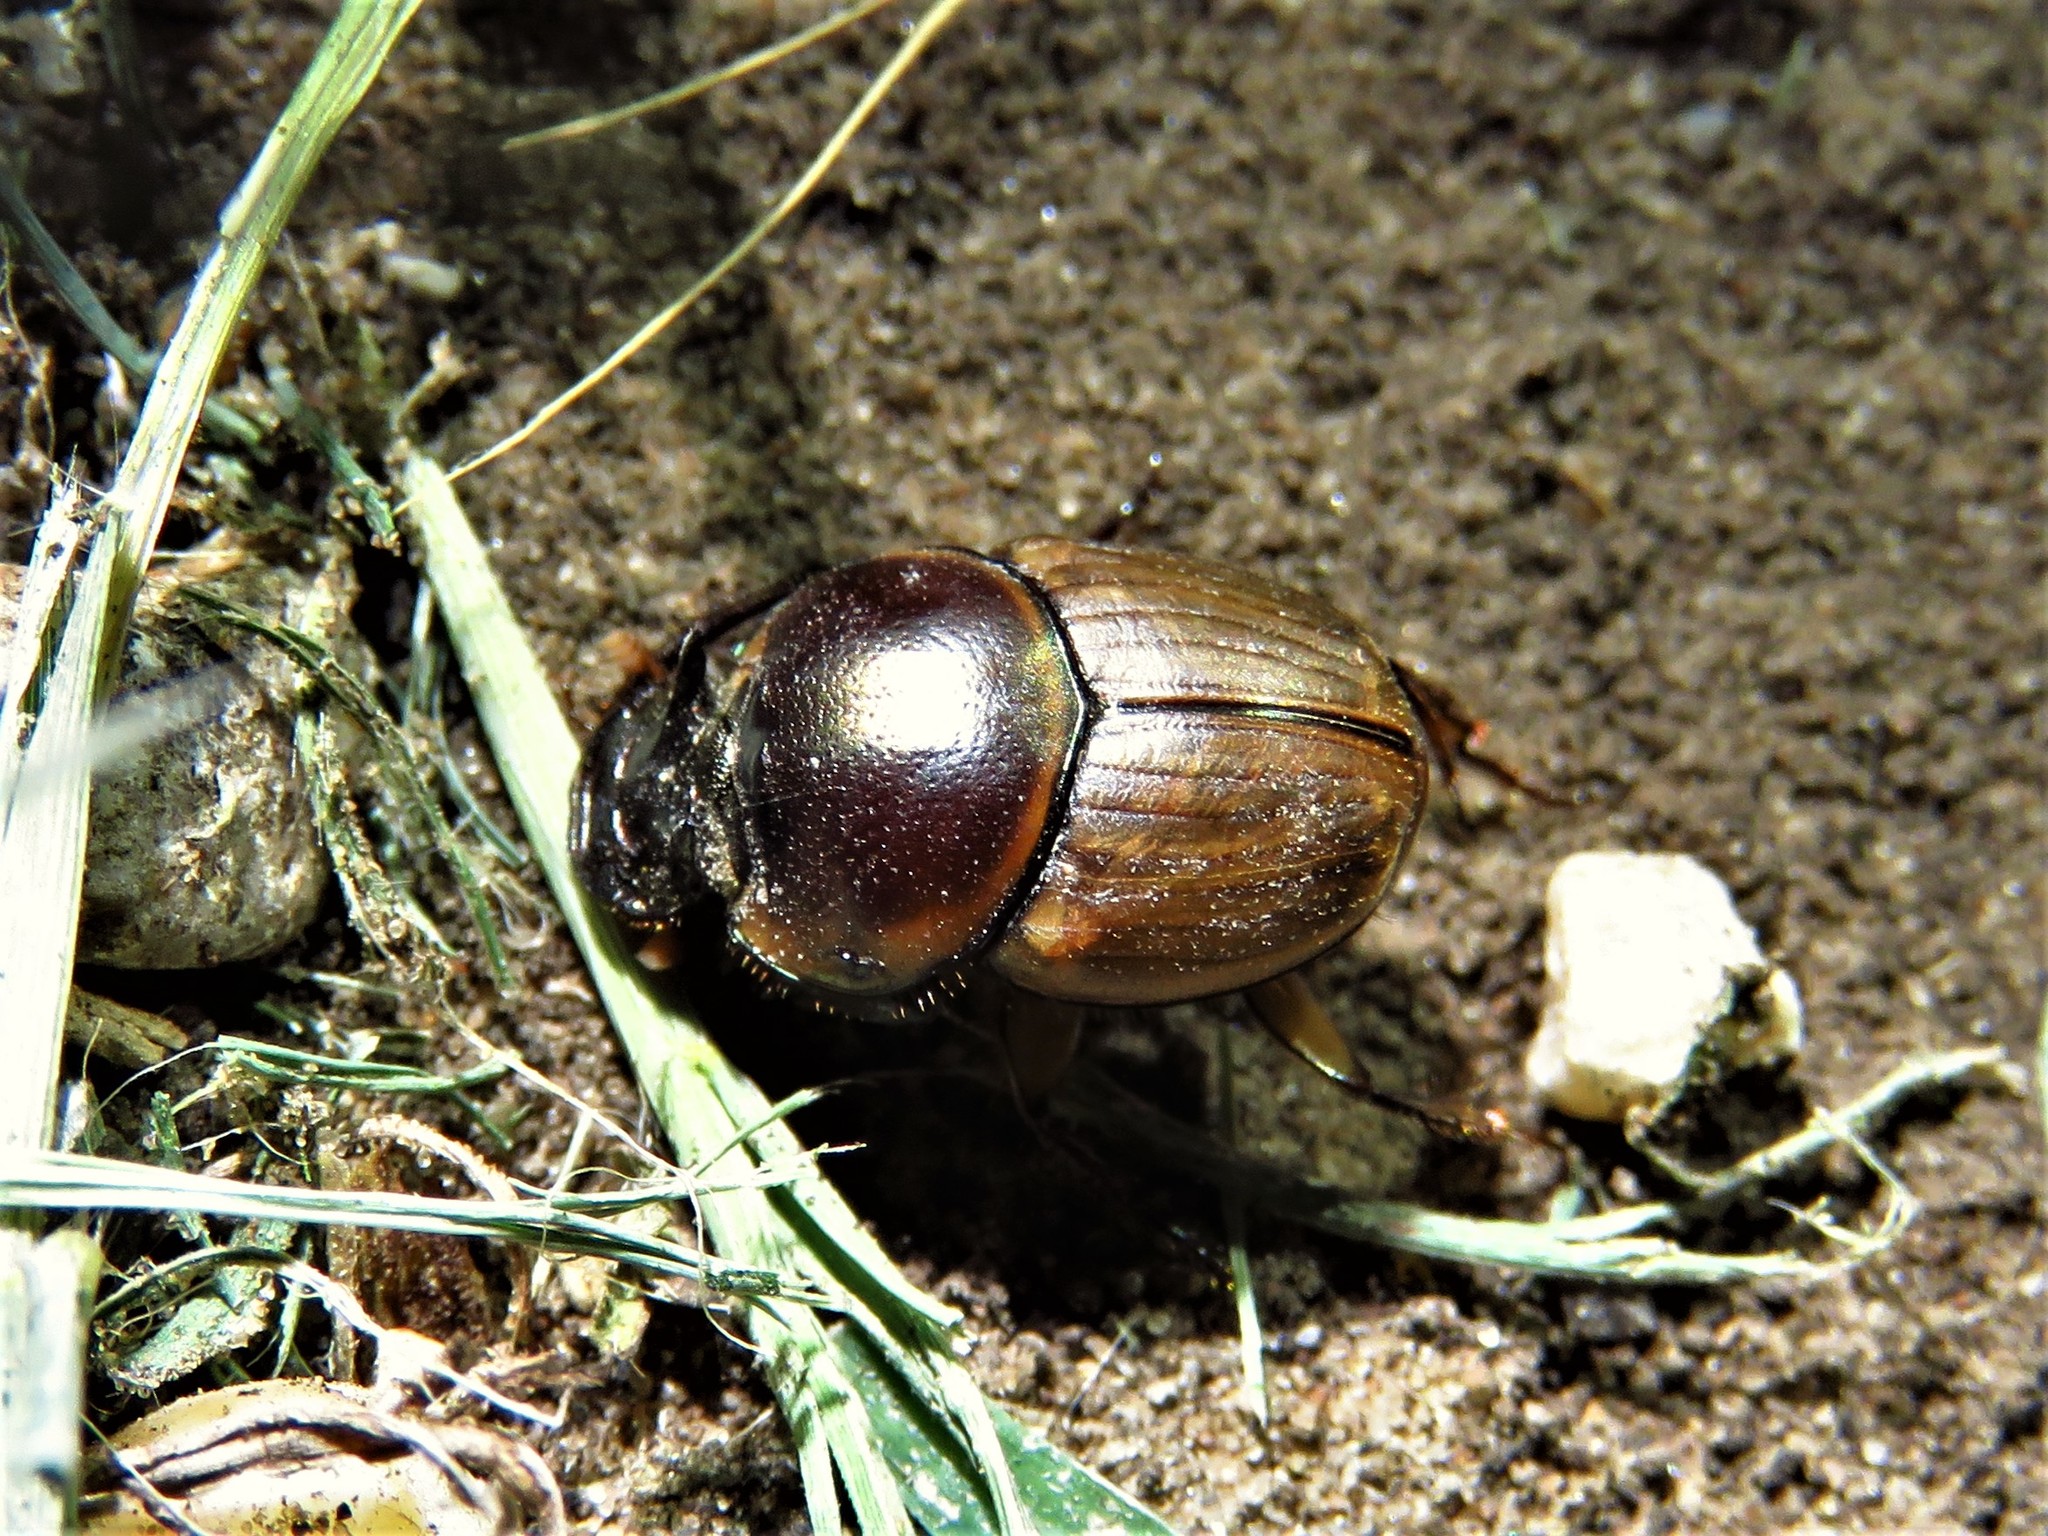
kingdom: Animalia
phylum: Arthropoda
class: Insecta
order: Coleoptera
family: Scarabaeidae
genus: Digitonthophagus
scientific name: Digitonthophagus gazella
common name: Brown dung beetle
